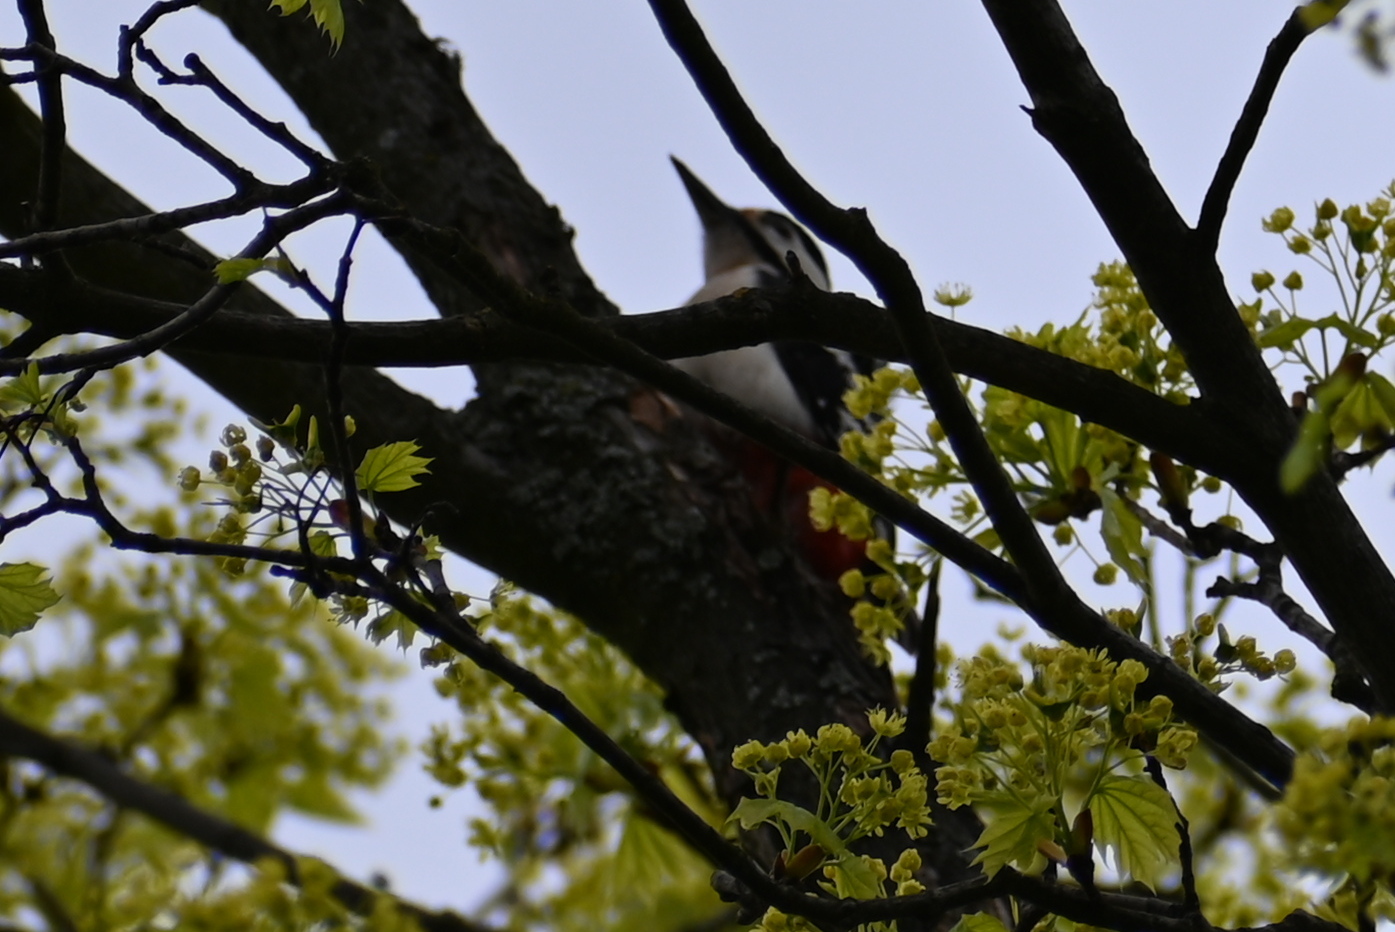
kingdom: Animalia
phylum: Chordata
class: Aves
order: Piciformes
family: Picidae
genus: Dendrocopos
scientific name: Dendrocopos major
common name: Great spotted woodpecker
